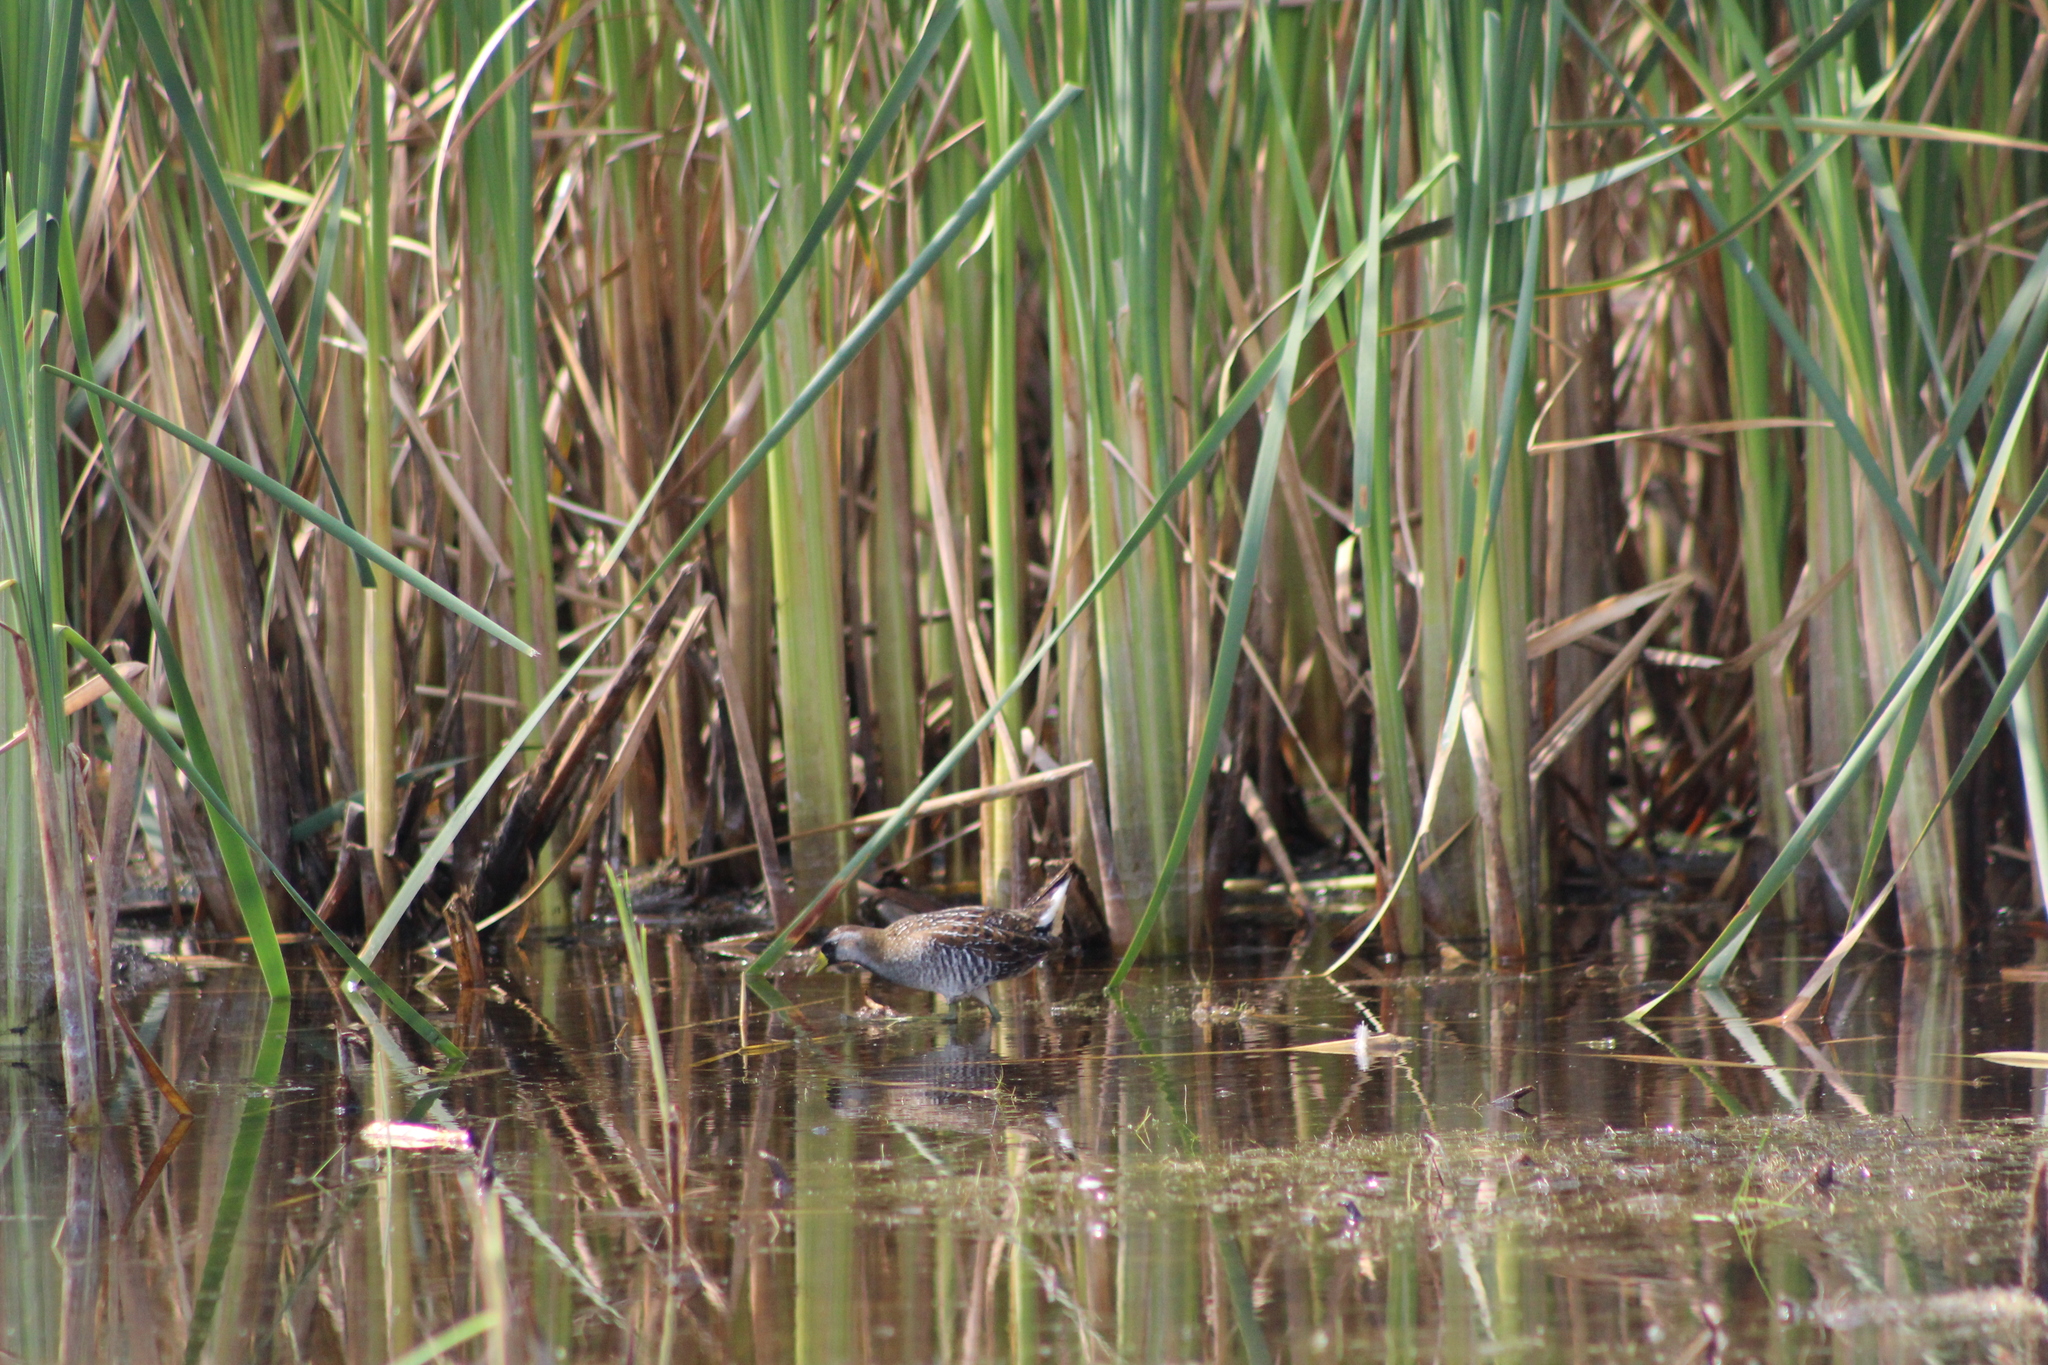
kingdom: Animalia
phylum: Chordata
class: Aves
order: Gruiformes
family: Rallidae
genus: Porzana
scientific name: Porzana carolina
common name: Sora
